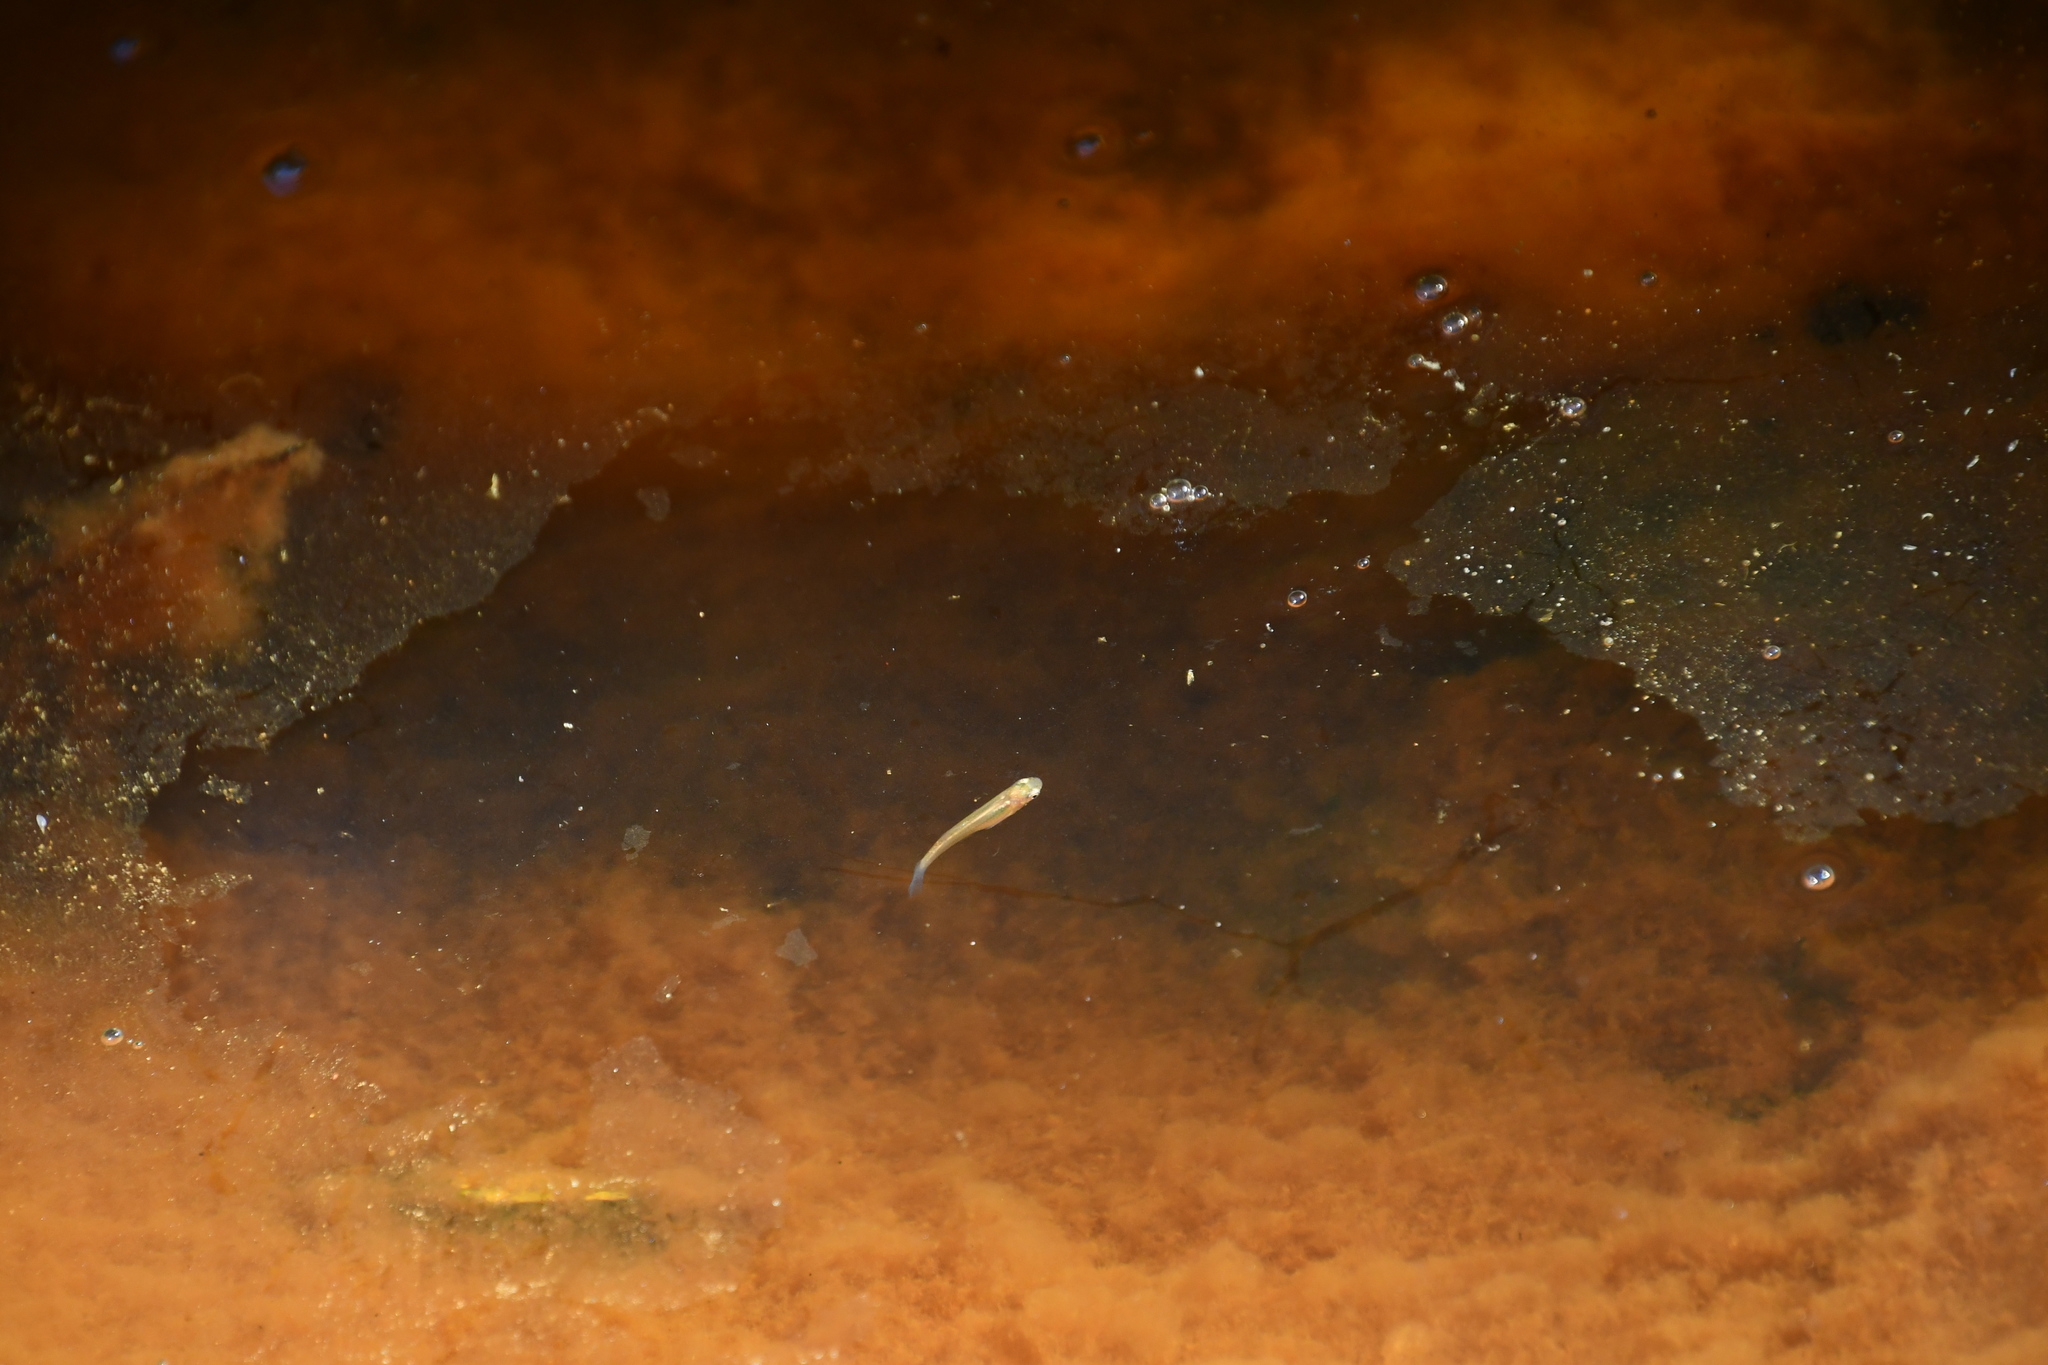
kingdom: Animalia
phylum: Chordata
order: Cyprinodontiformes
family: Poeciliidae
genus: Gambusia
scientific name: Gambusia holbrooki
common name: Eastern mosquitofish
